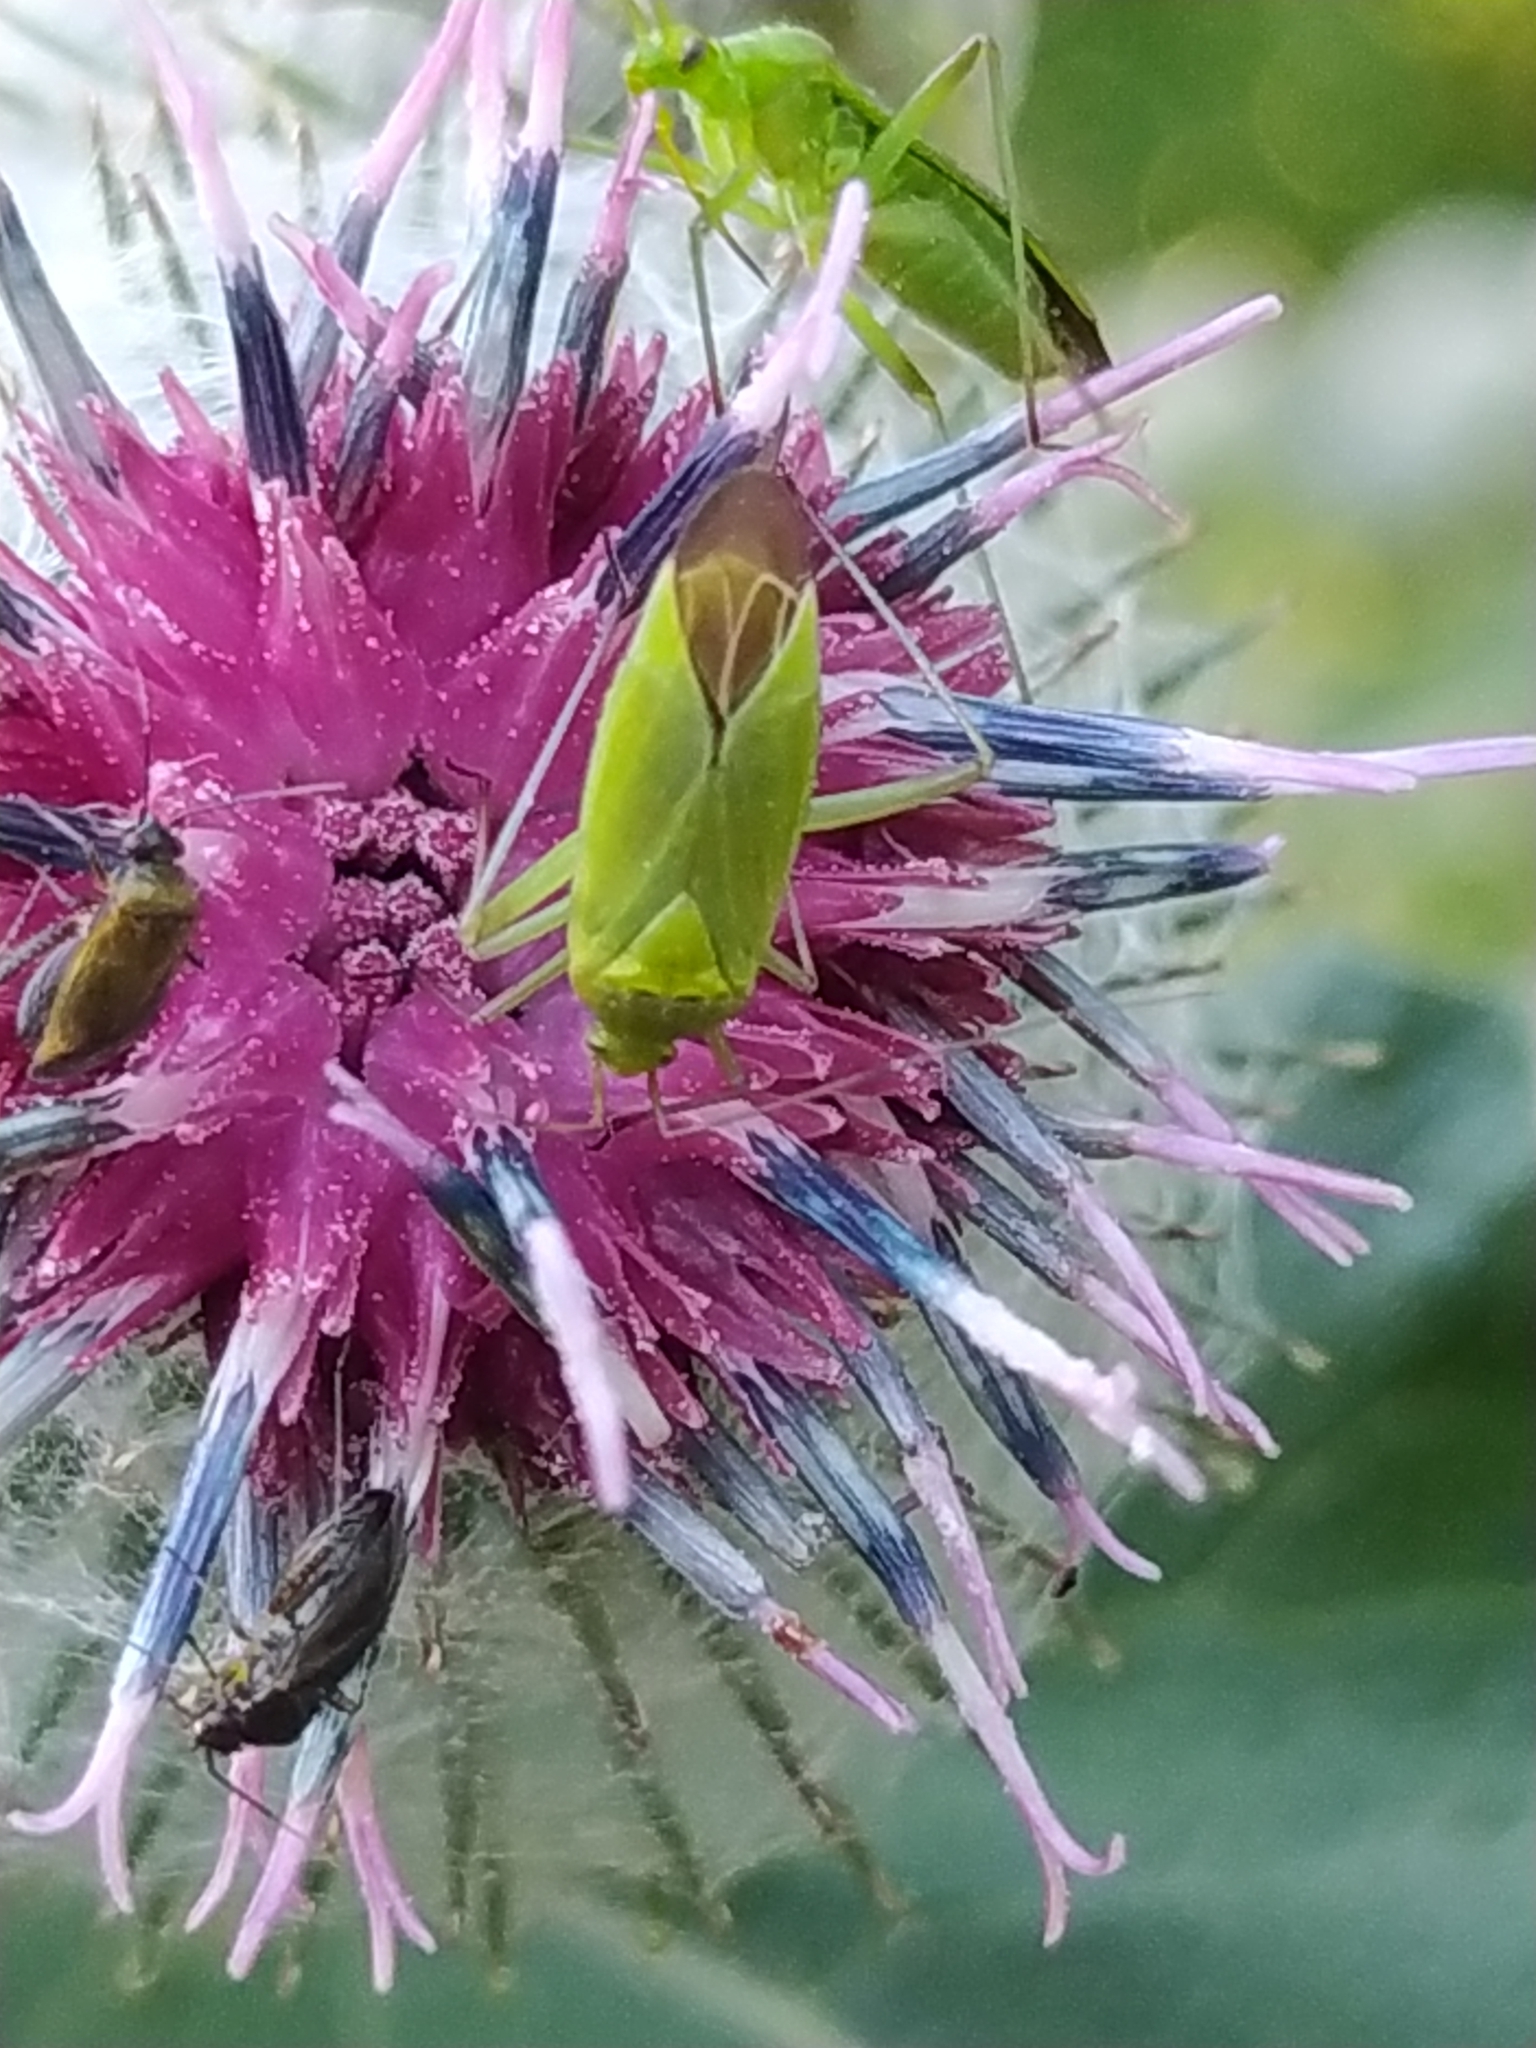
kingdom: Animalia
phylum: Arthropoda
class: Insecta
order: Hemiptera
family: Miridae
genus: Calocoris
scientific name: Calocoris affinis
